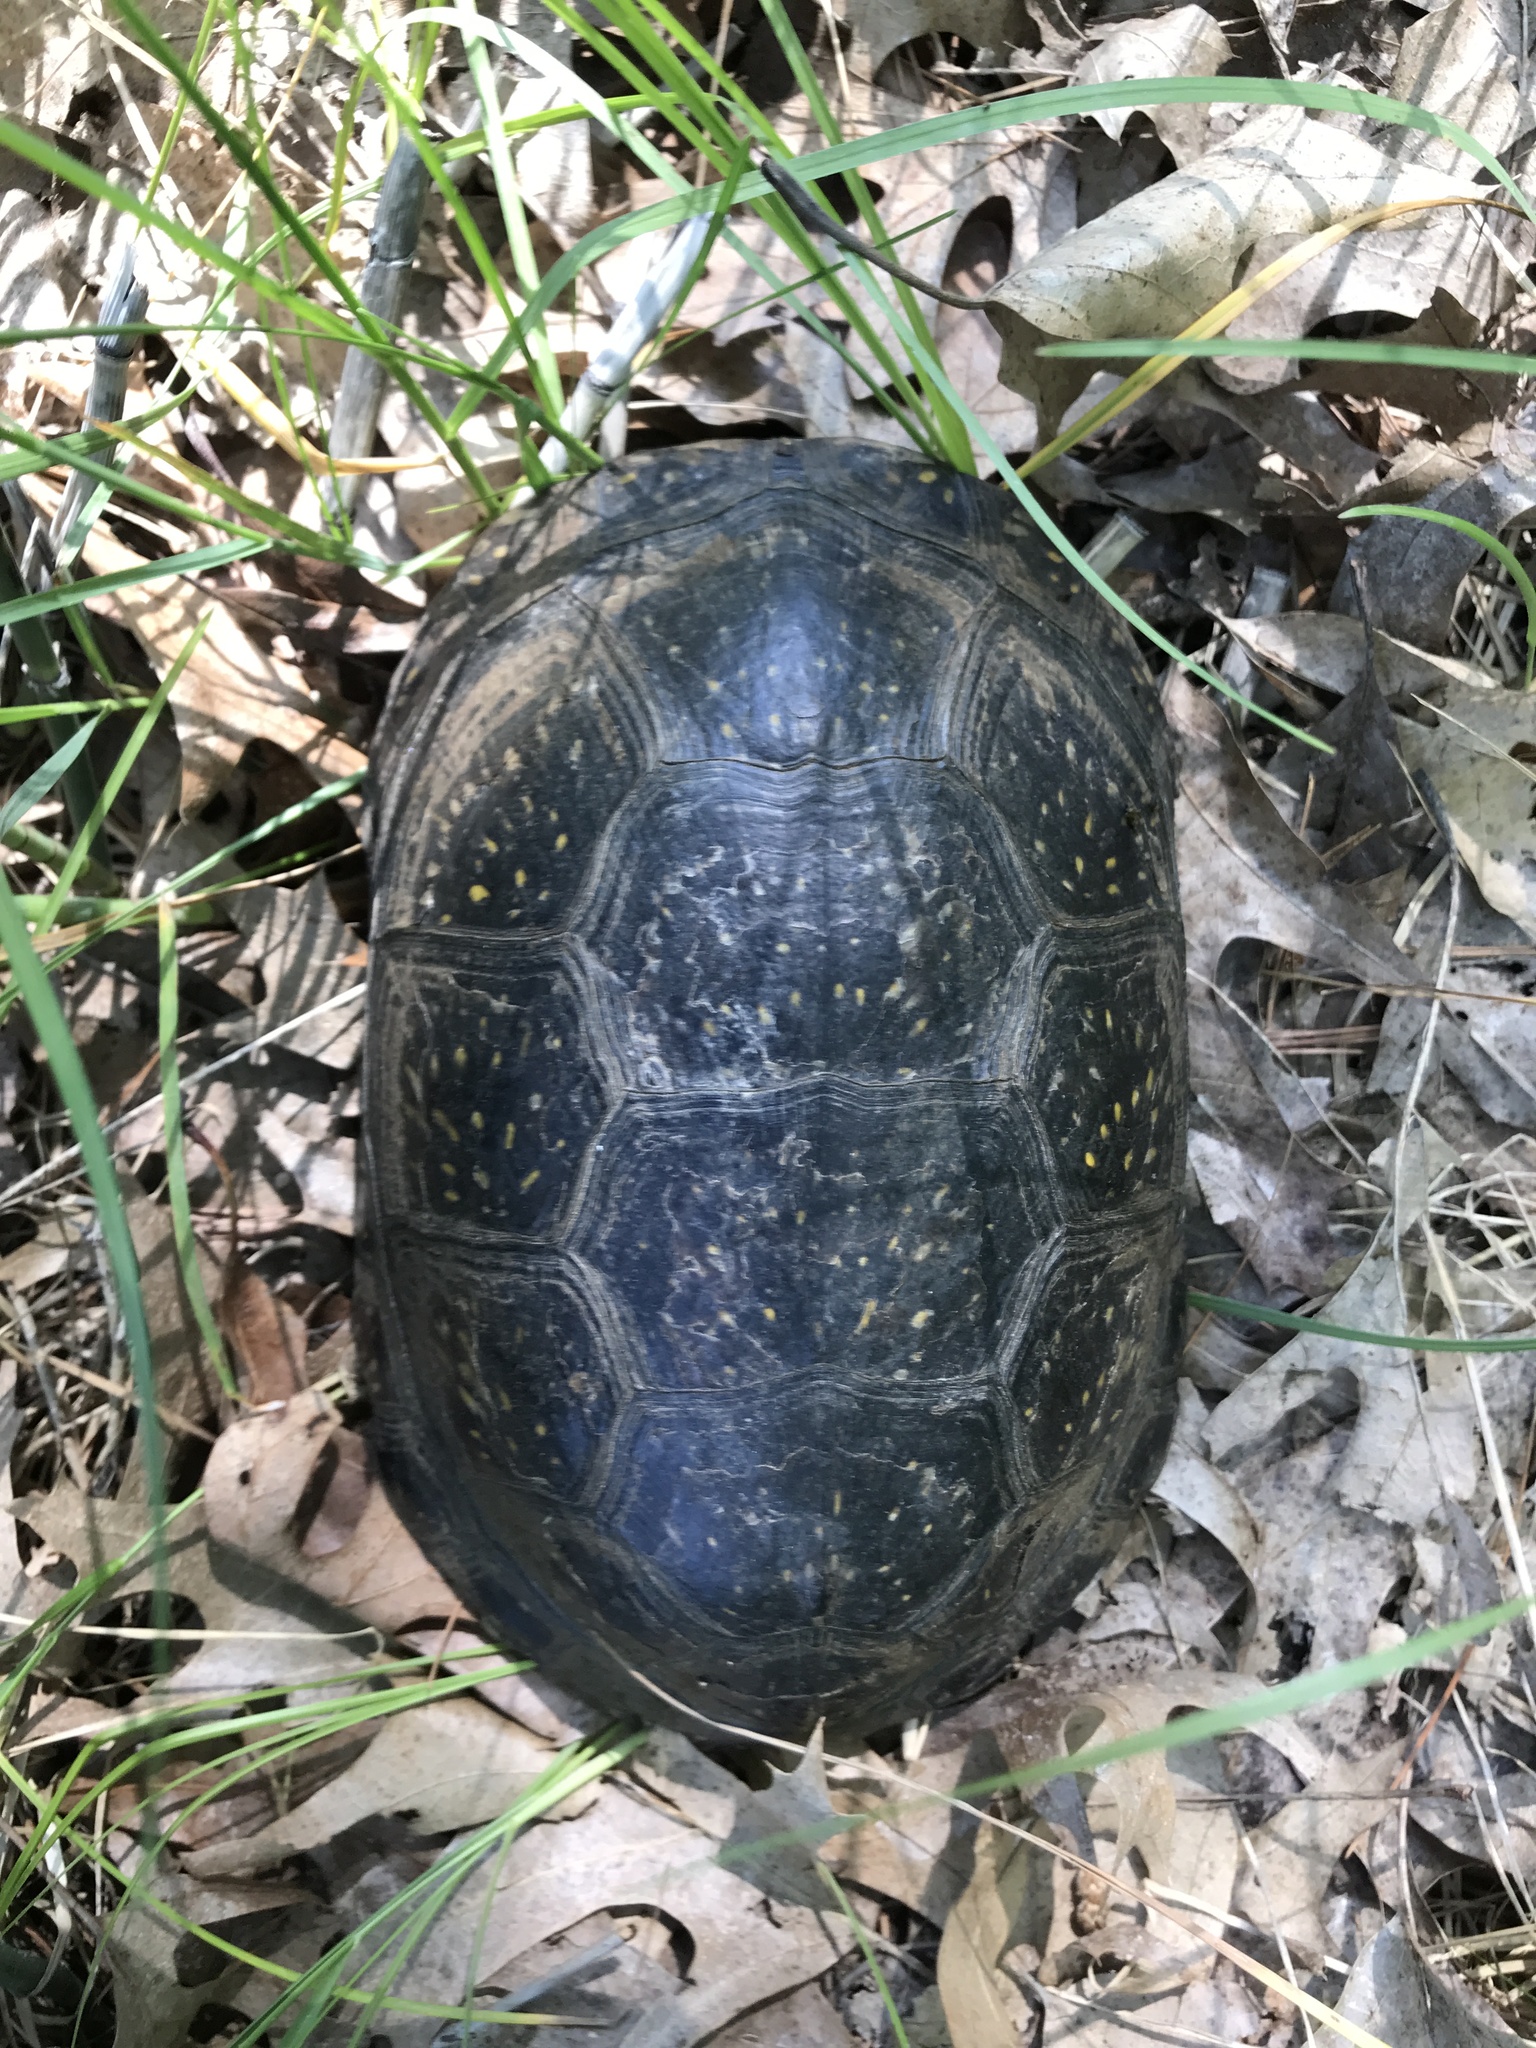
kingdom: Animalia
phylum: Chordata
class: Testudines
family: Emydidae
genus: Emys
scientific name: Emys blandingii
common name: Blanding's turtle
